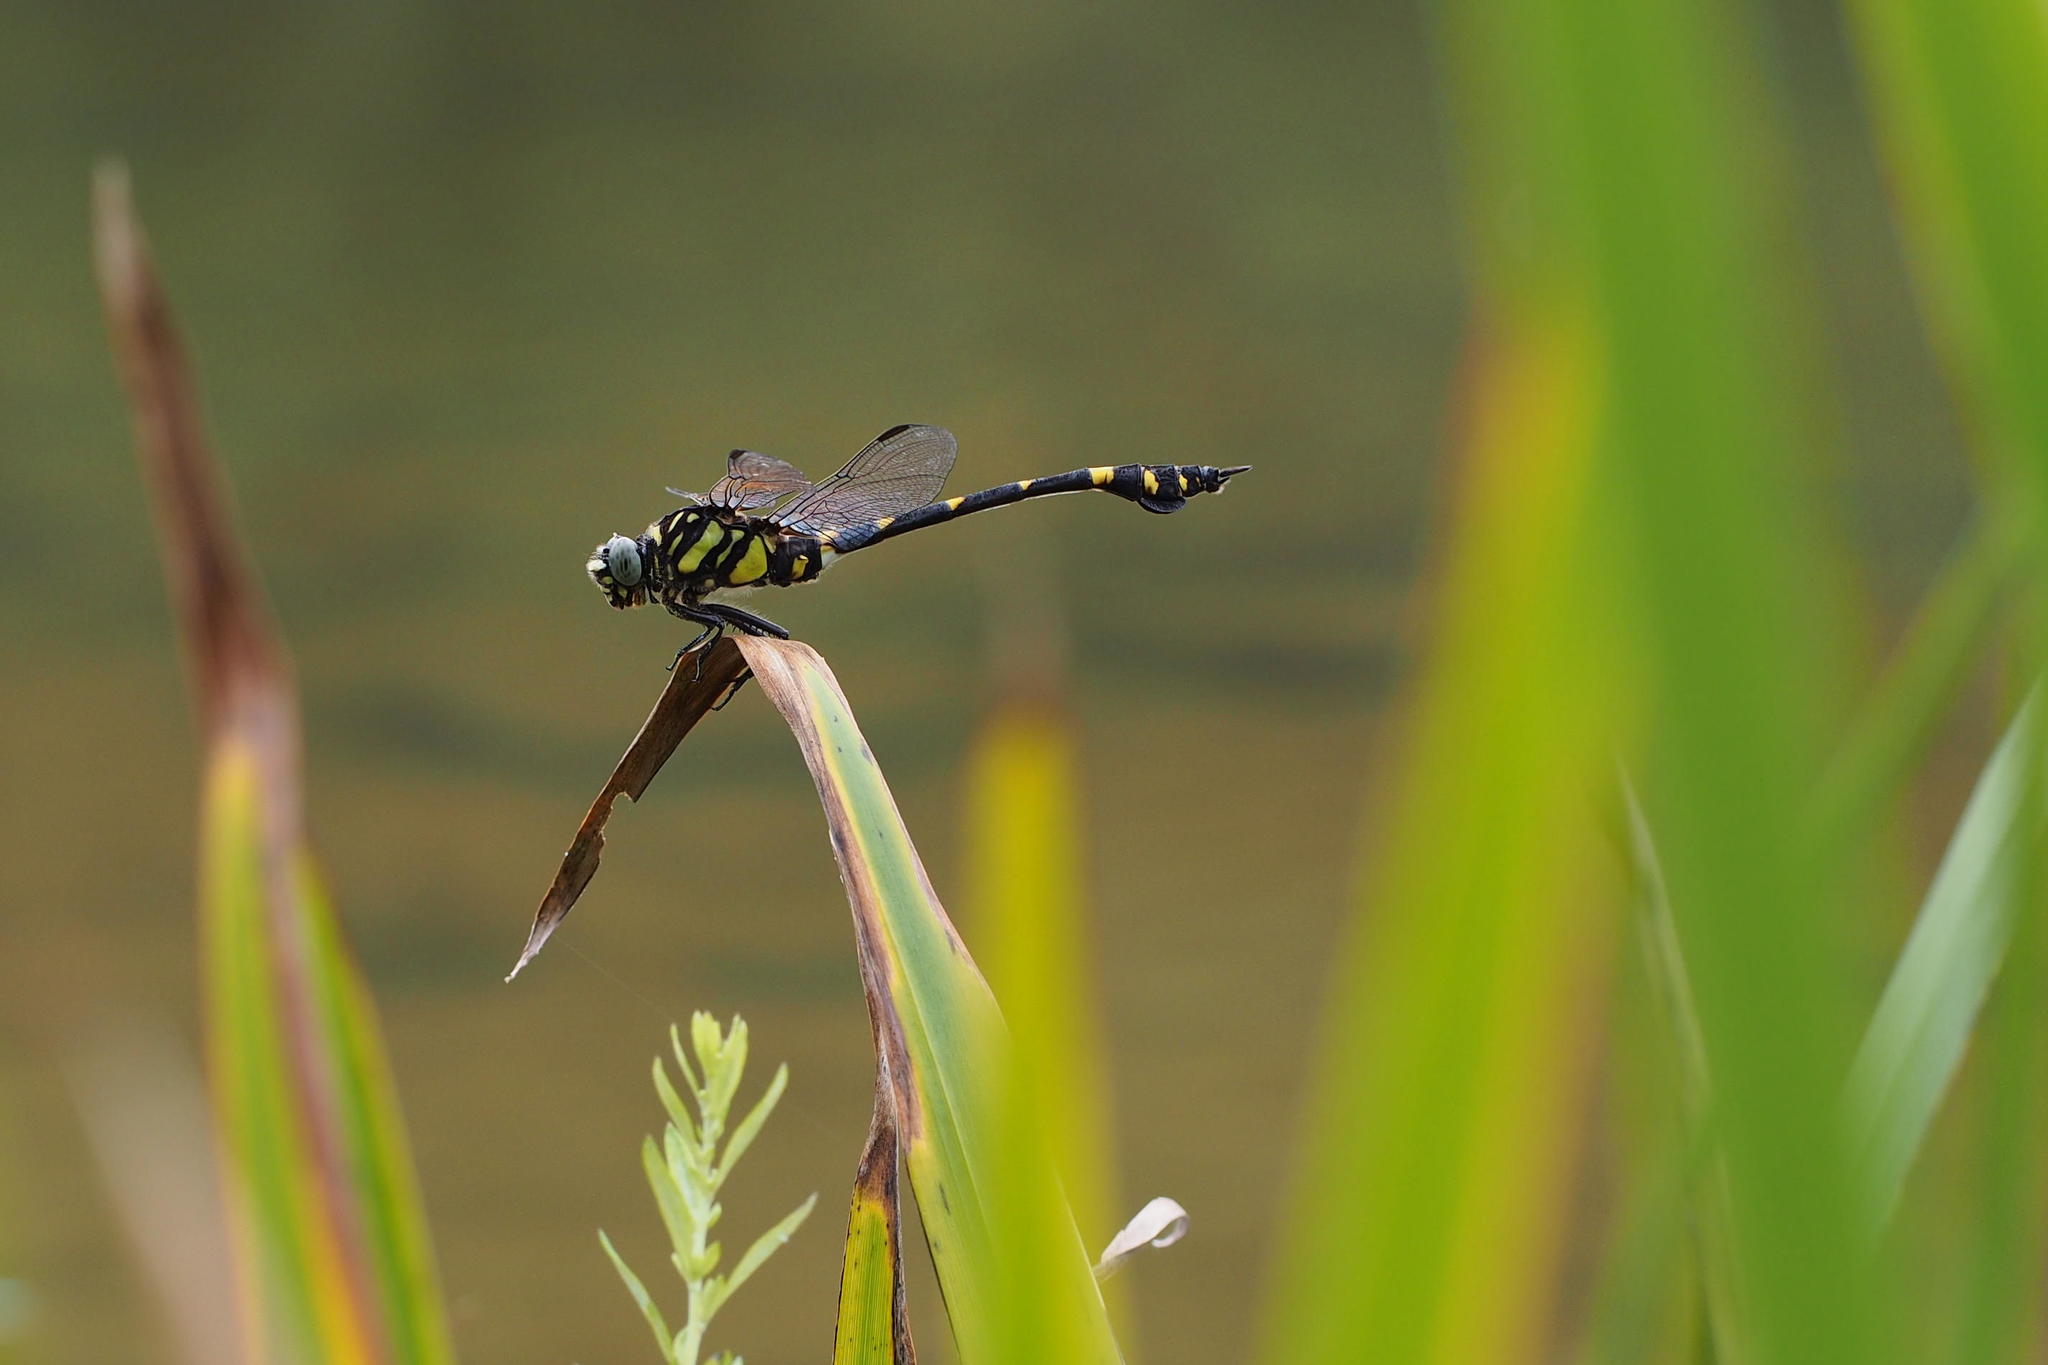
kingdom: Animalia
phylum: Arthropoda
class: Insecta
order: Odonata
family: Gomphidae
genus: Ictinogomphus
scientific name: Ictinogomphus pertinax
